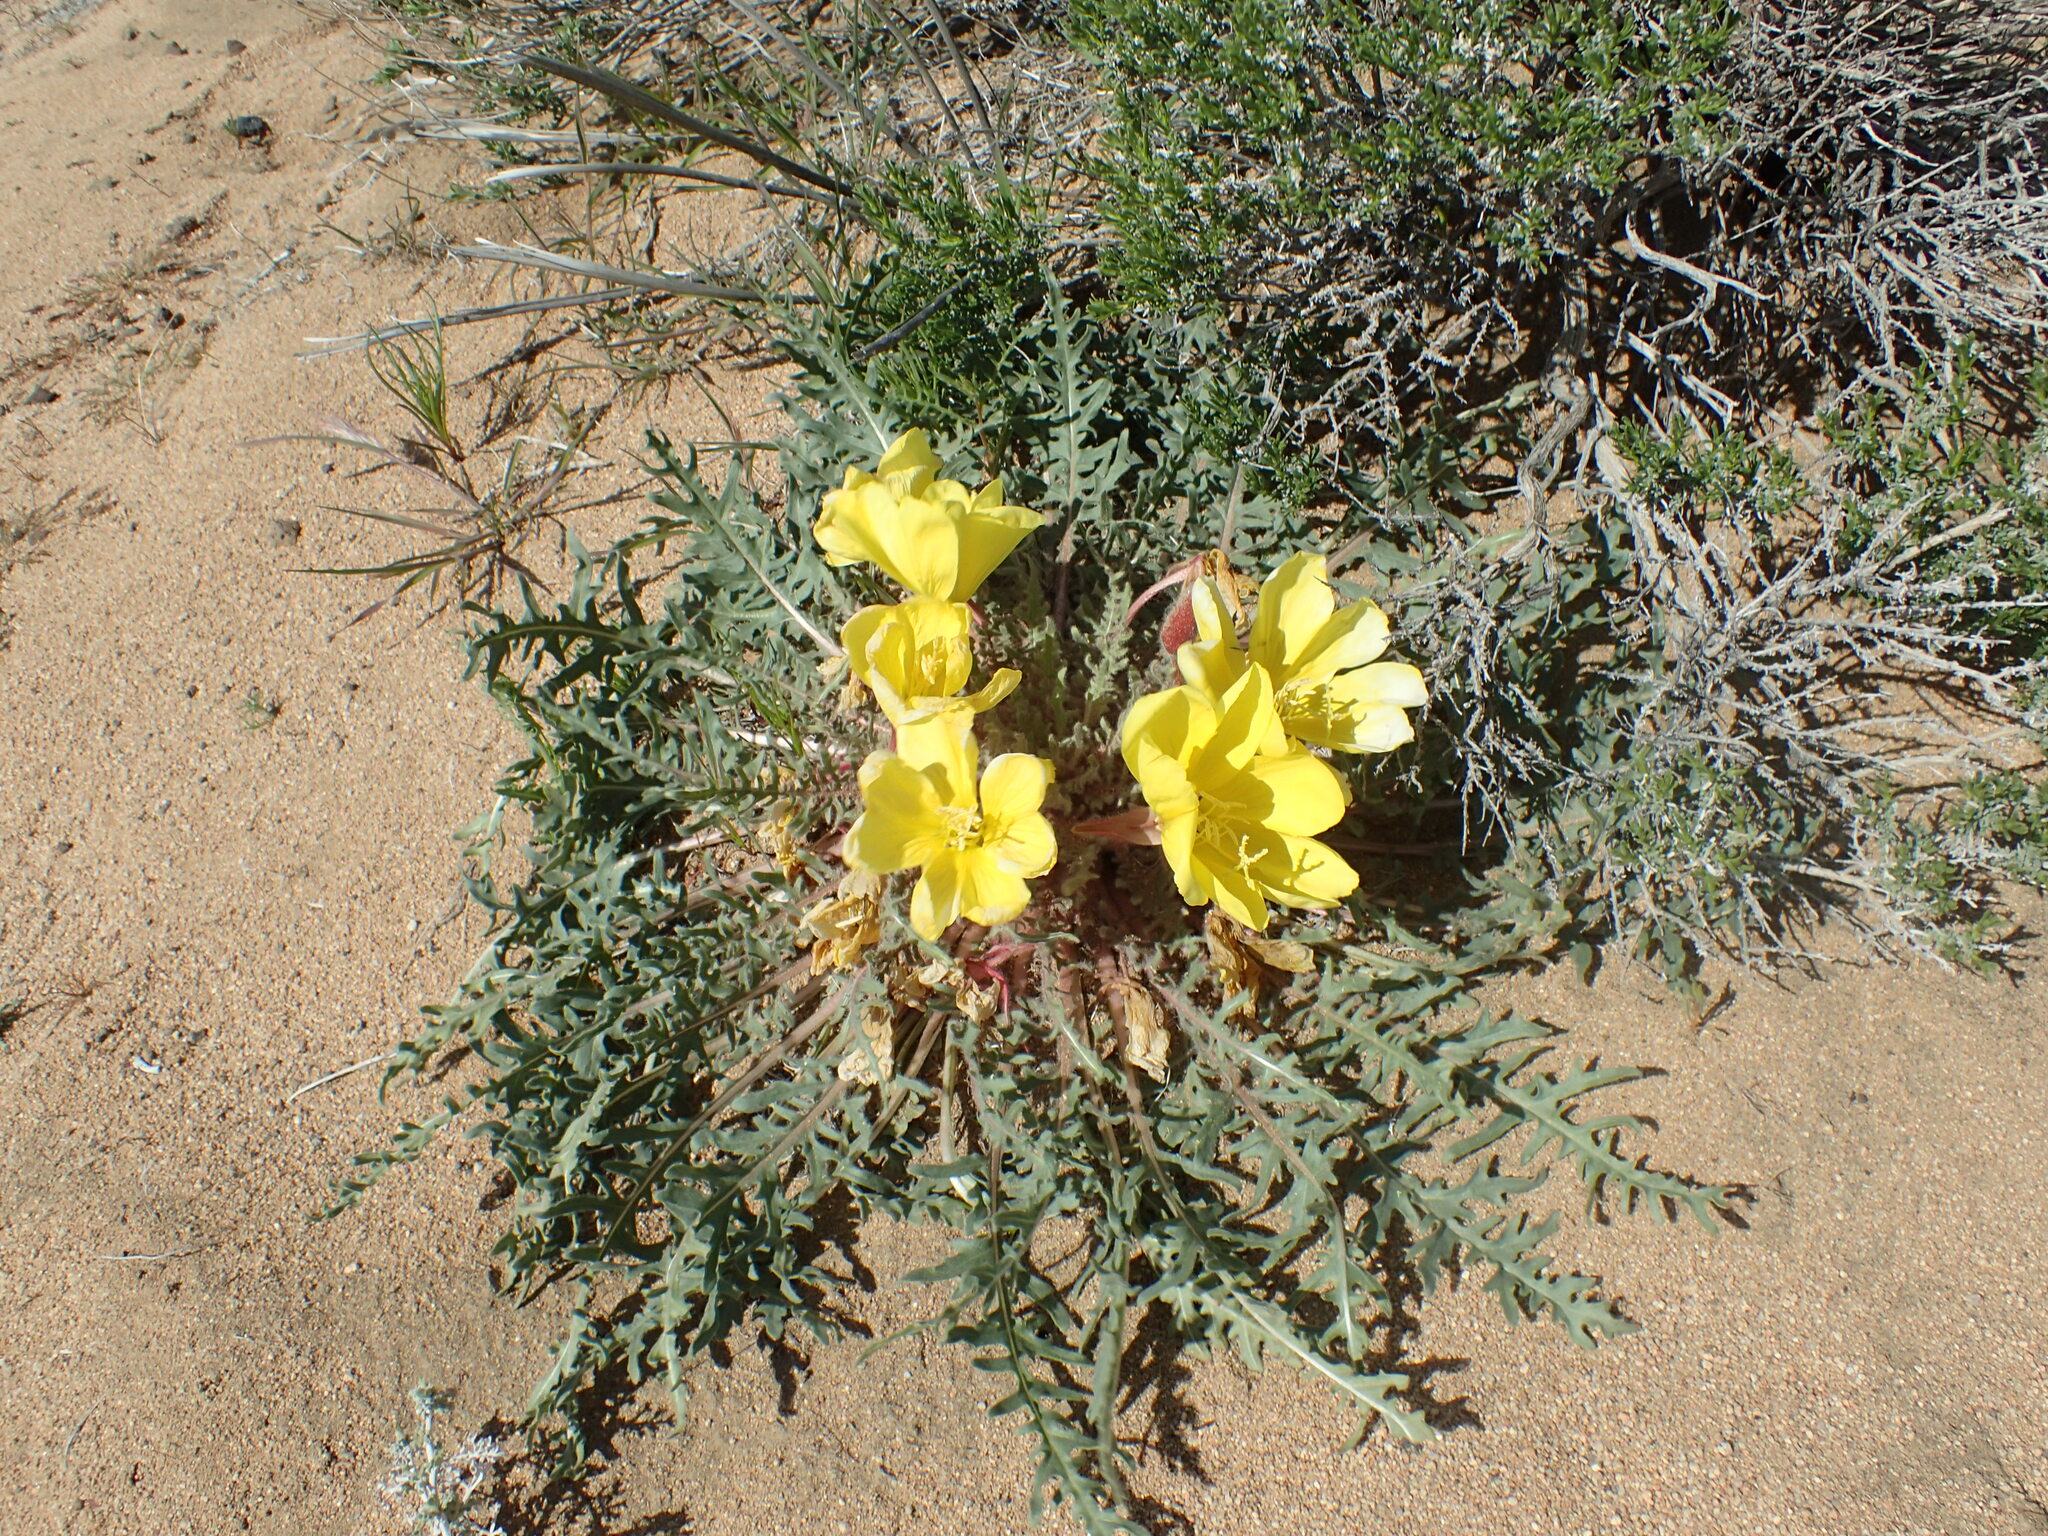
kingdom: Plantae
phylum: Tracheophyta
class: Magnoliopsida
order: Myrtales
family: Onagraceae
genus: Oenothera
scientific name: Oenothera primiveris
